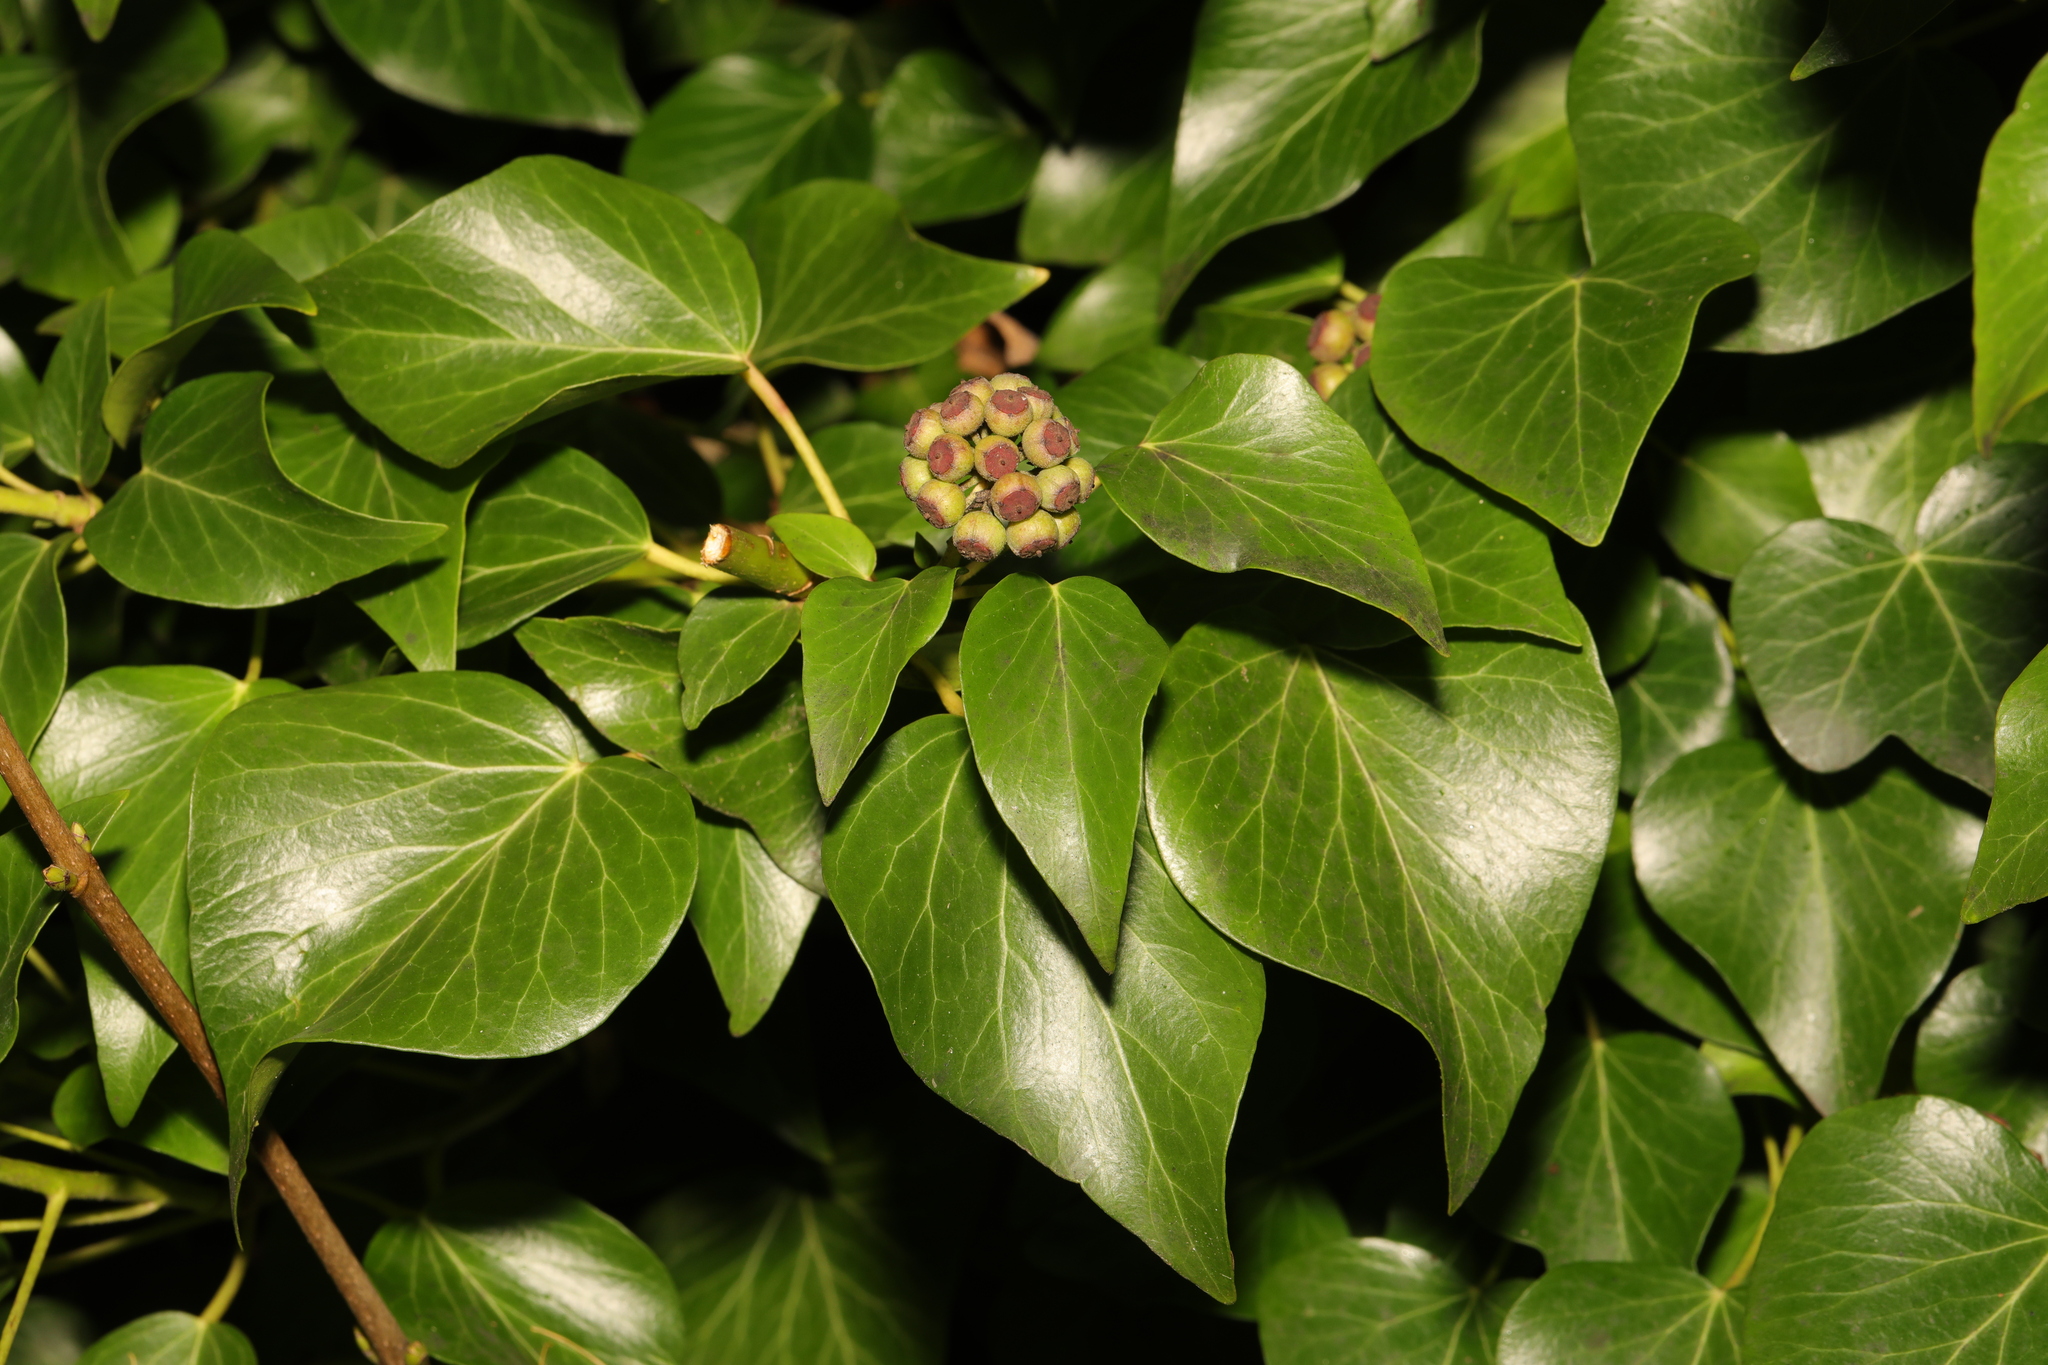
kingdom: Plantae
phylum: Tracheophyta
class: Magnoliopsida
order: Apiales
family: Araliaceae
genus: Hedera
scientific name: Hedera helix
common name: Ivy
